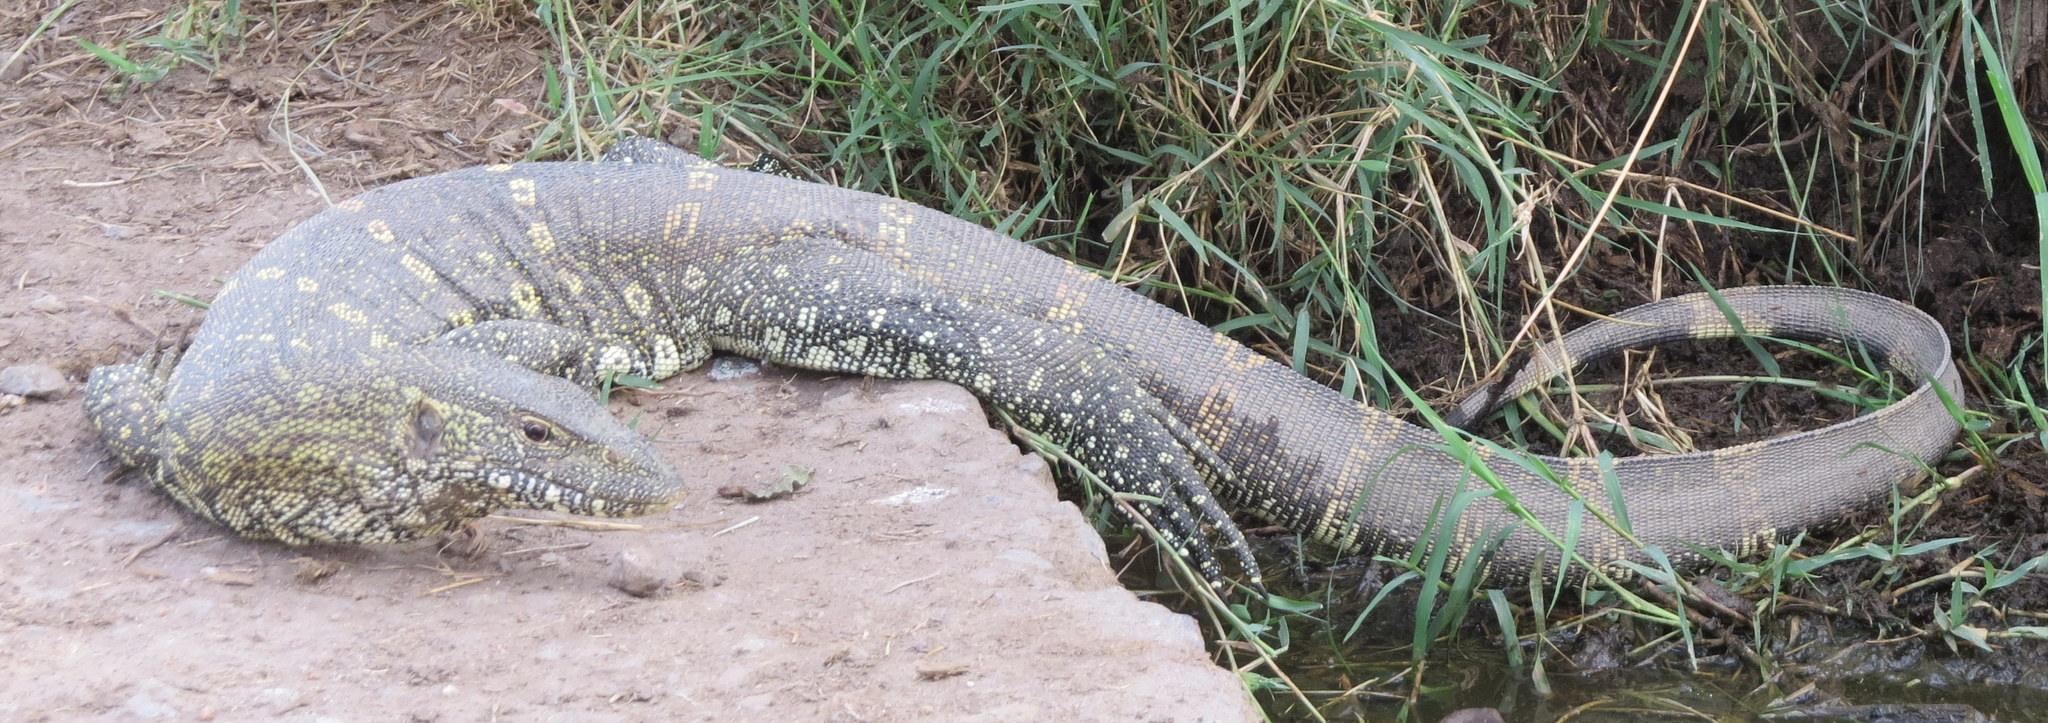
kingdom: Animalia
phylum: Chordata
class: Squamata
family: Varanidae
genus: Varanus
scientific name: Varanus niloticus
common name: Nile monitor
